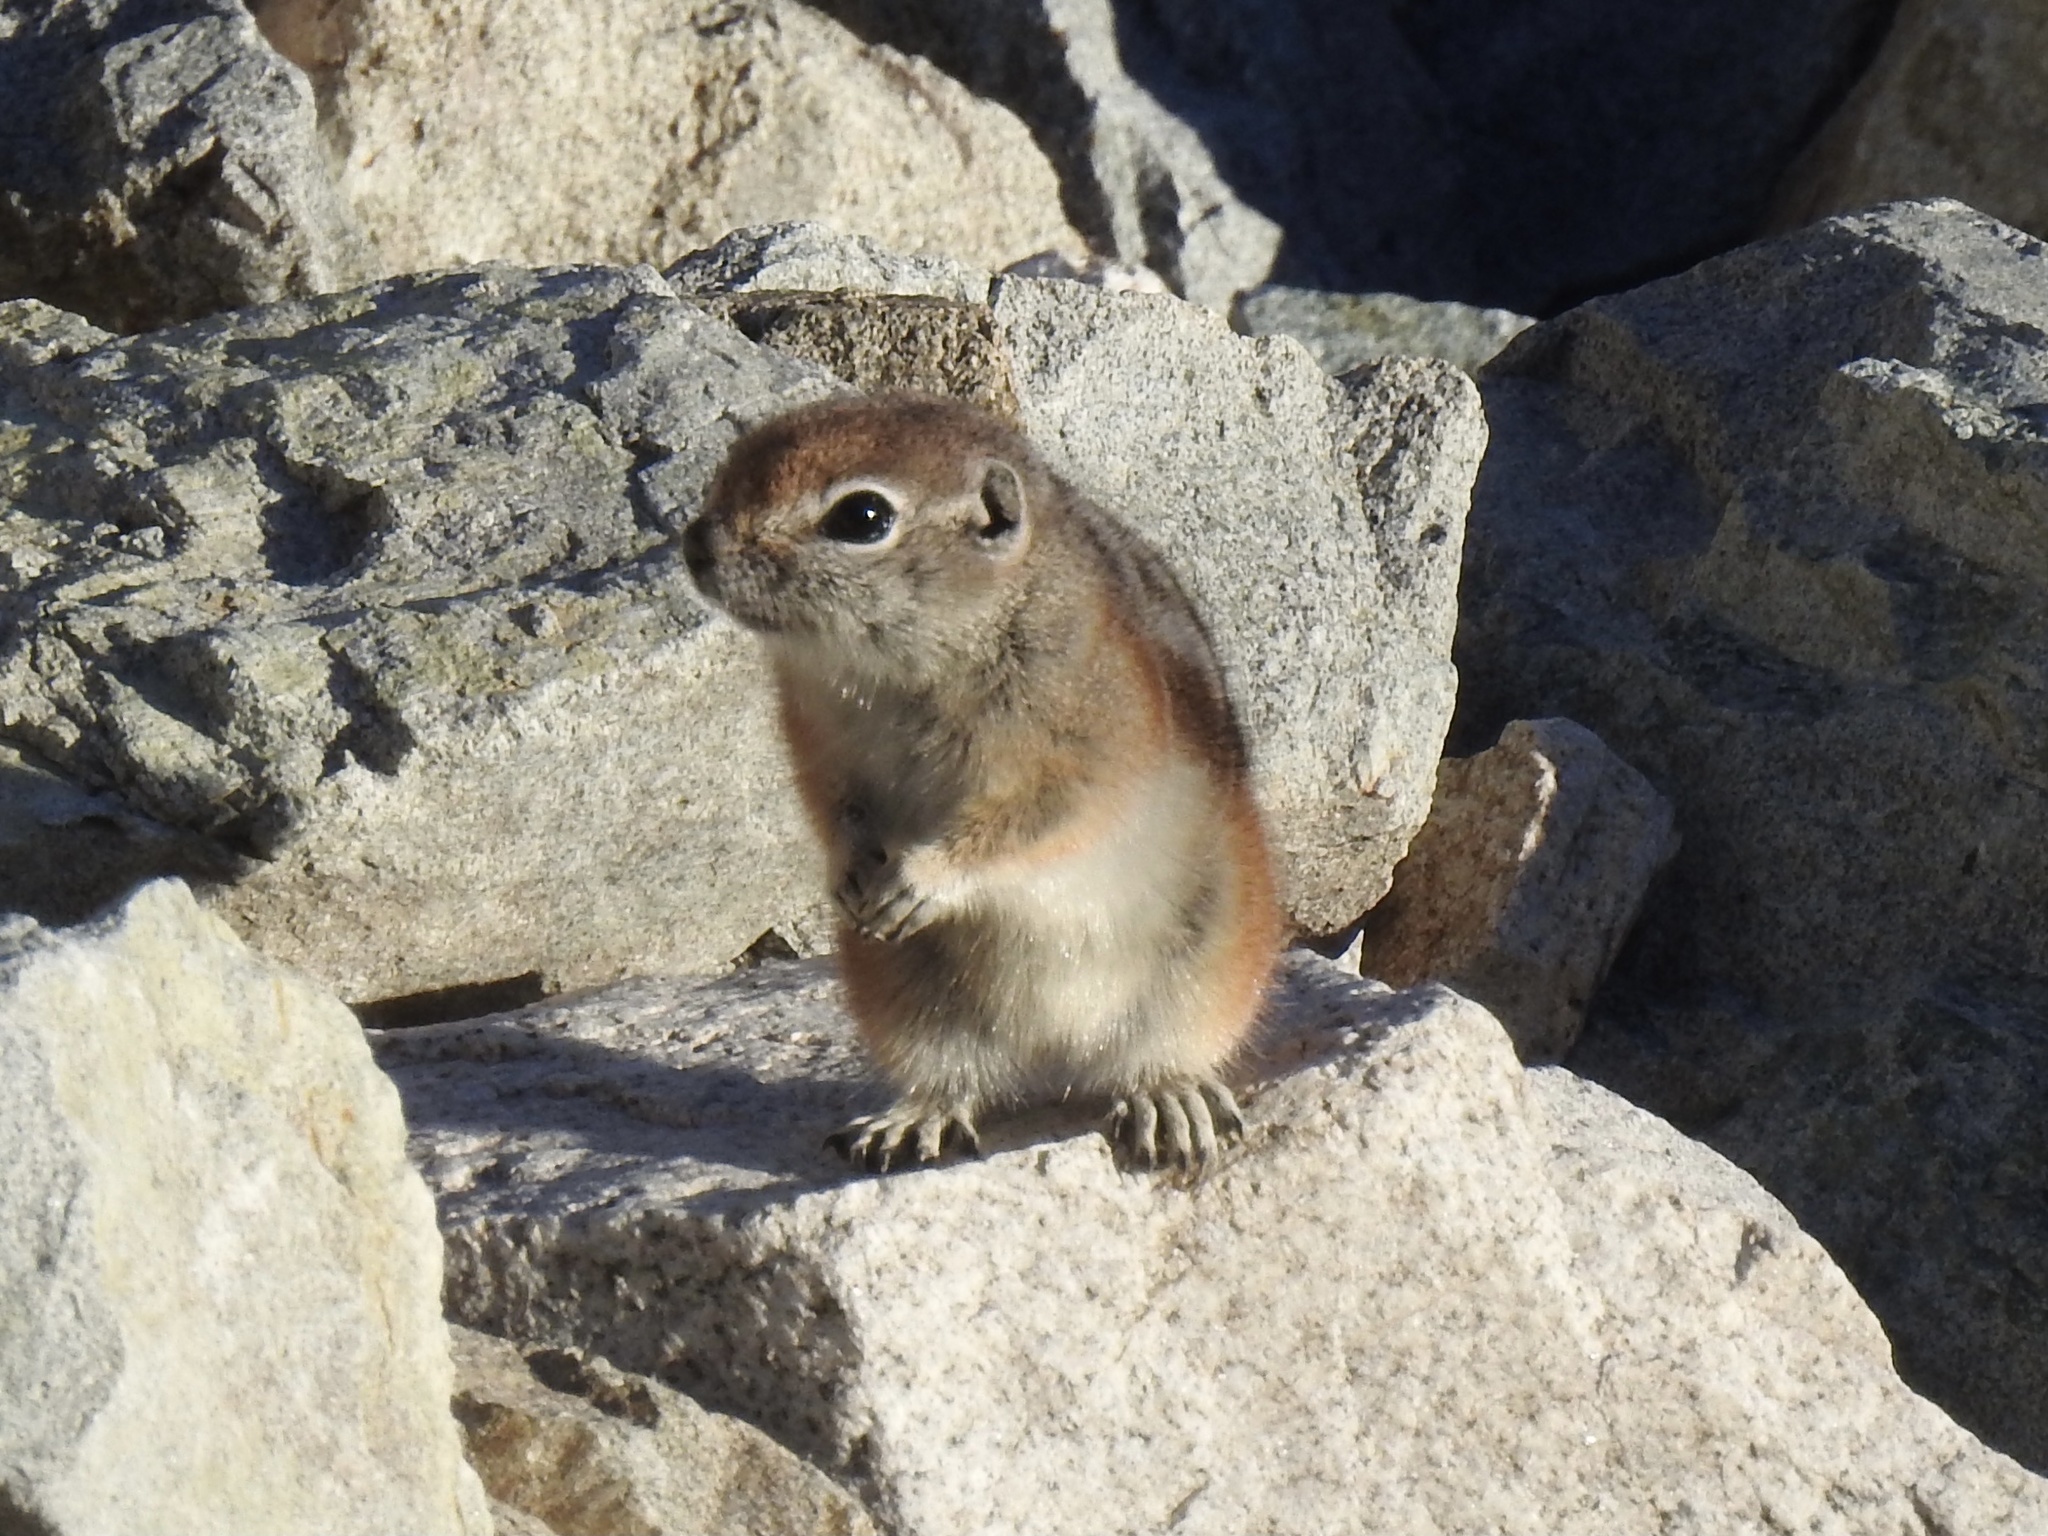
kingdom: Animalia
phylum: Chordata
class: Mammalia
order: Rodentia
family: Sciuridae
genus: Ammospermophilus
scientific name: Ammospermophilus leucurus
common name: White-tailed antelope squirrel
